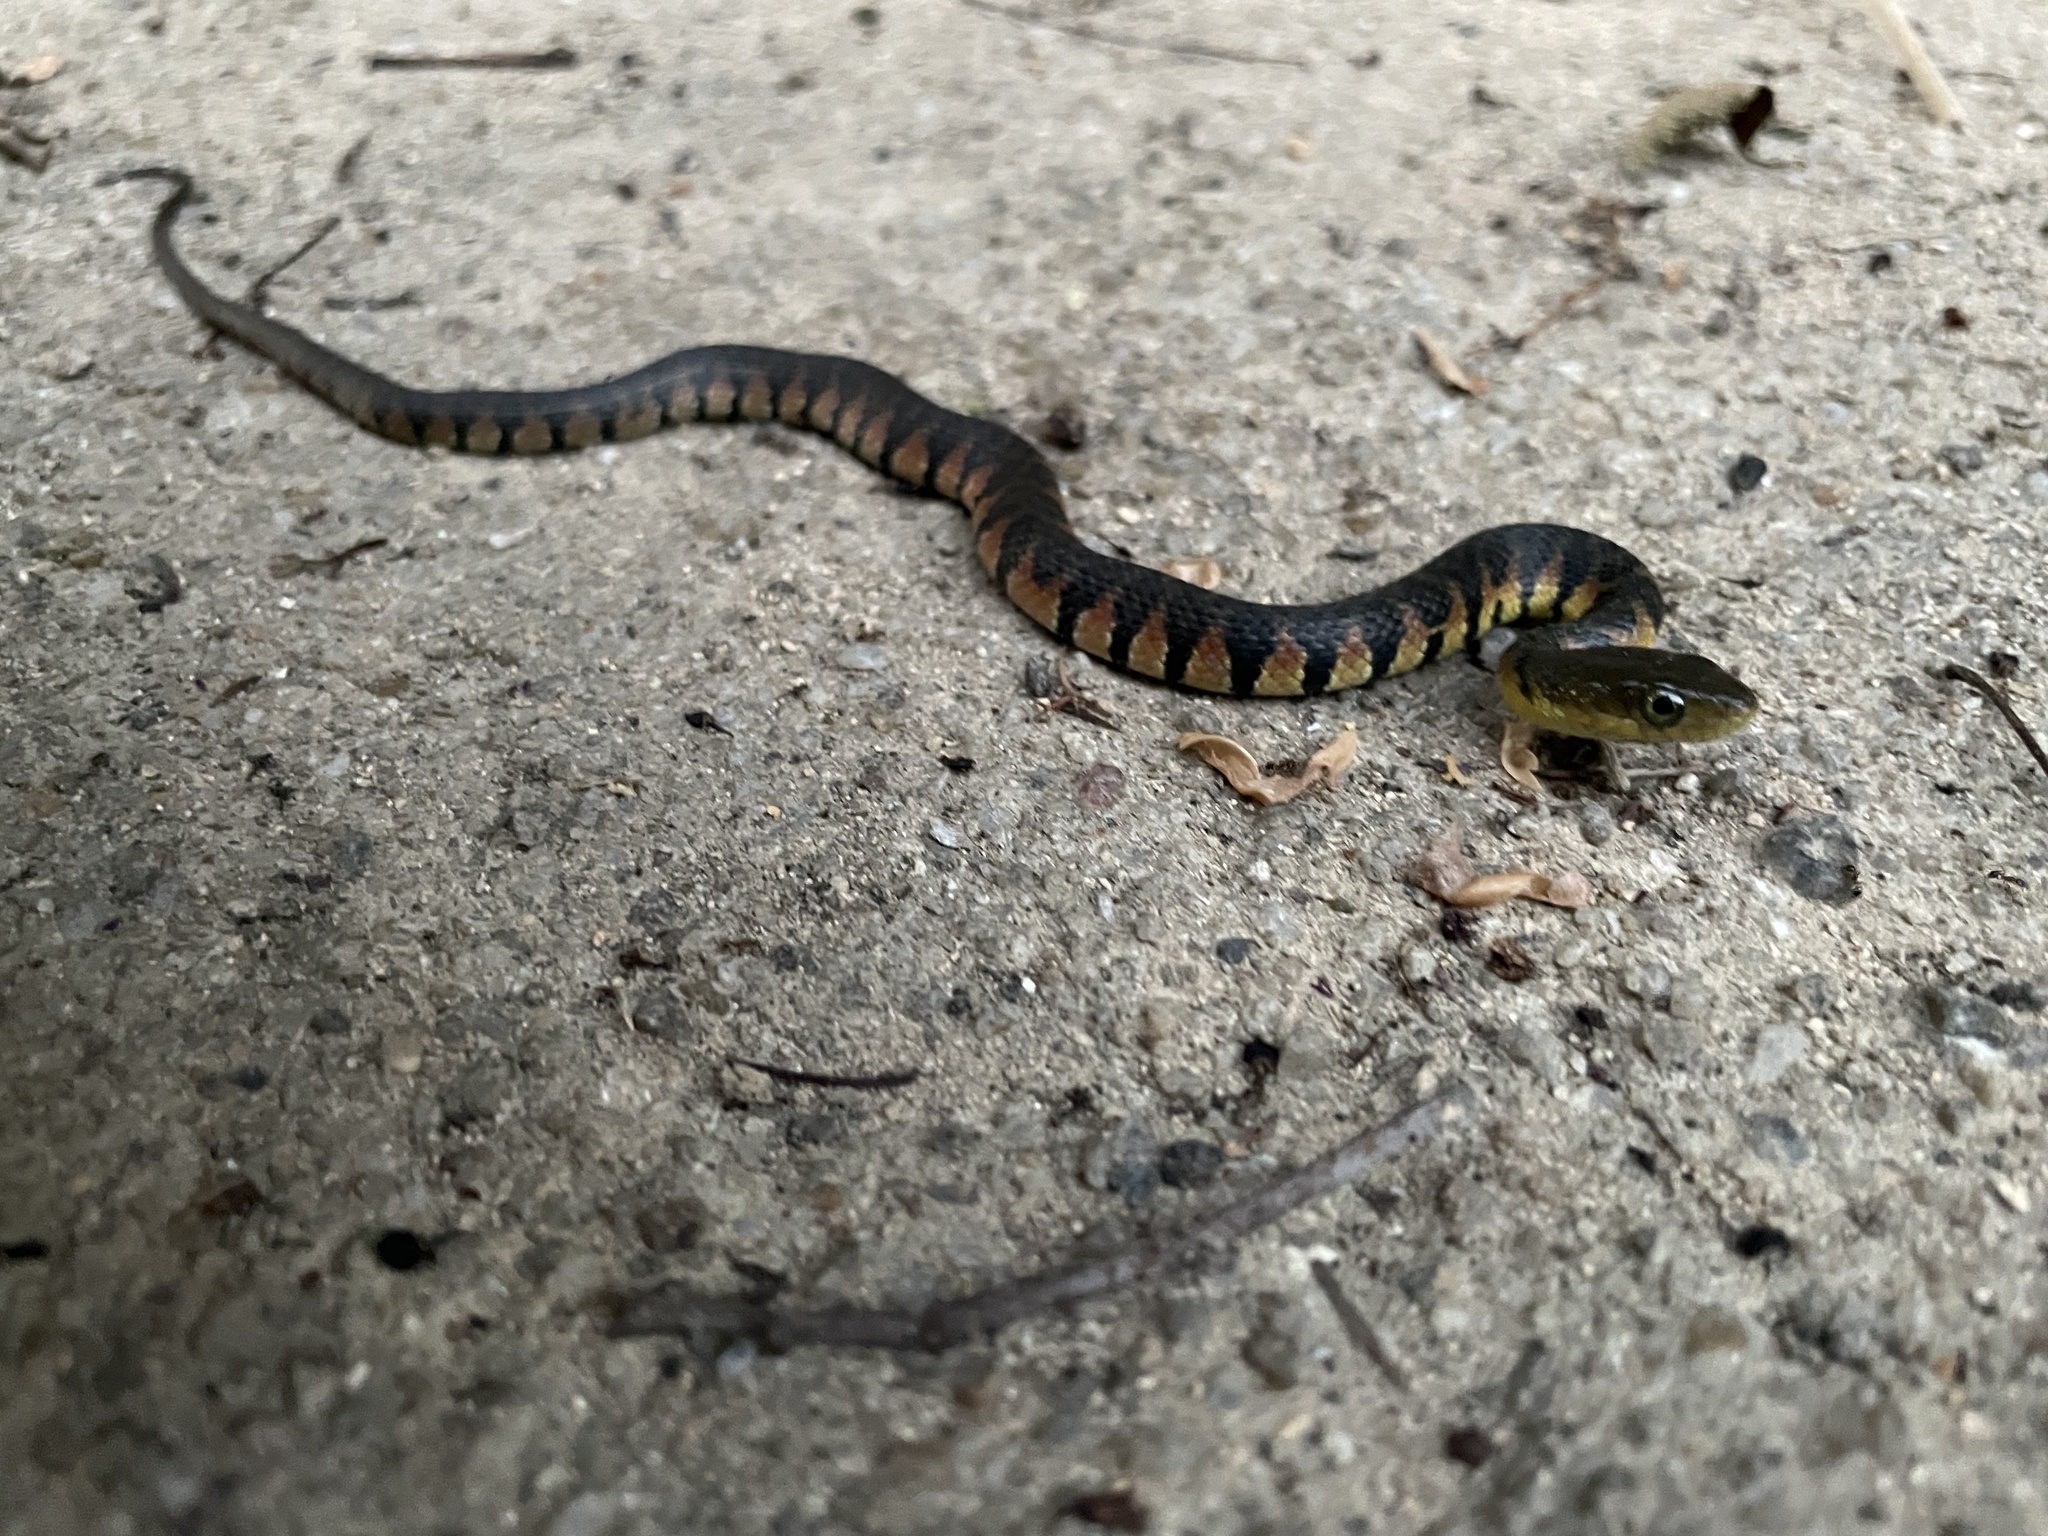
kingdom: Animalia
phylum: Chordata
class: Squamata
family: Colubridae
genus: Trimerodytes
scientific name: Trimerodytes percarinatus
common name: Eastern water snake
